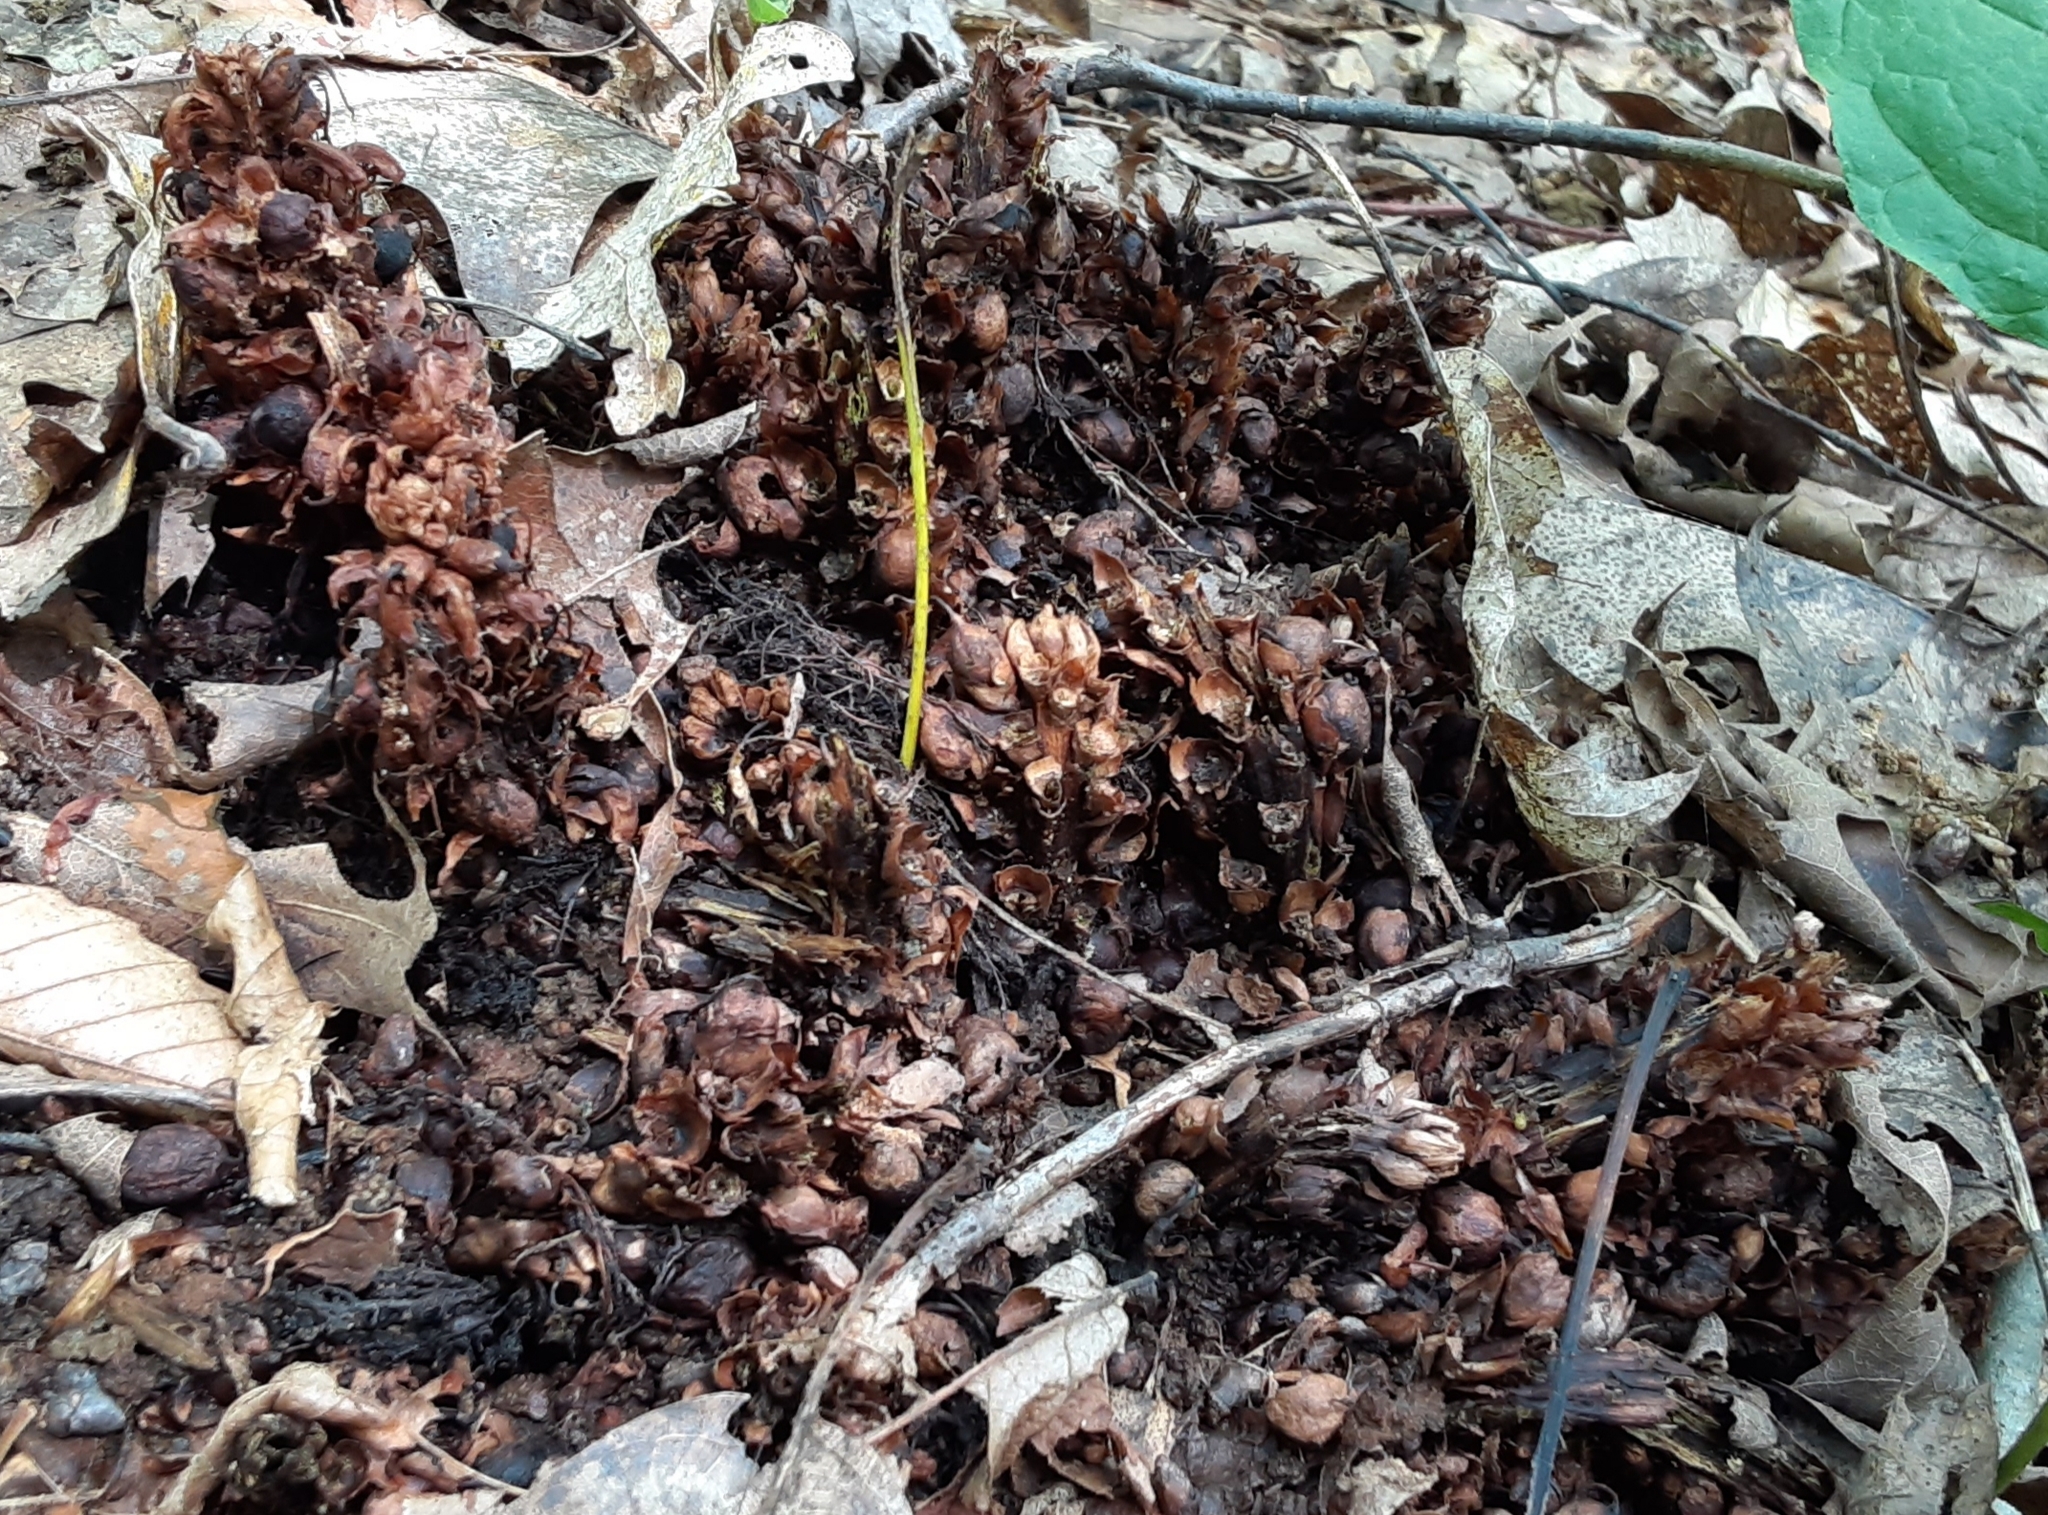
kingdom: Plantae
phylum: Tracheophyta
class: Magnoliopsida
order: Lamiales
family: Orobanchaceae
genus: Conopholis
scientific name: Conopholis americana
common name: American cancer-root
